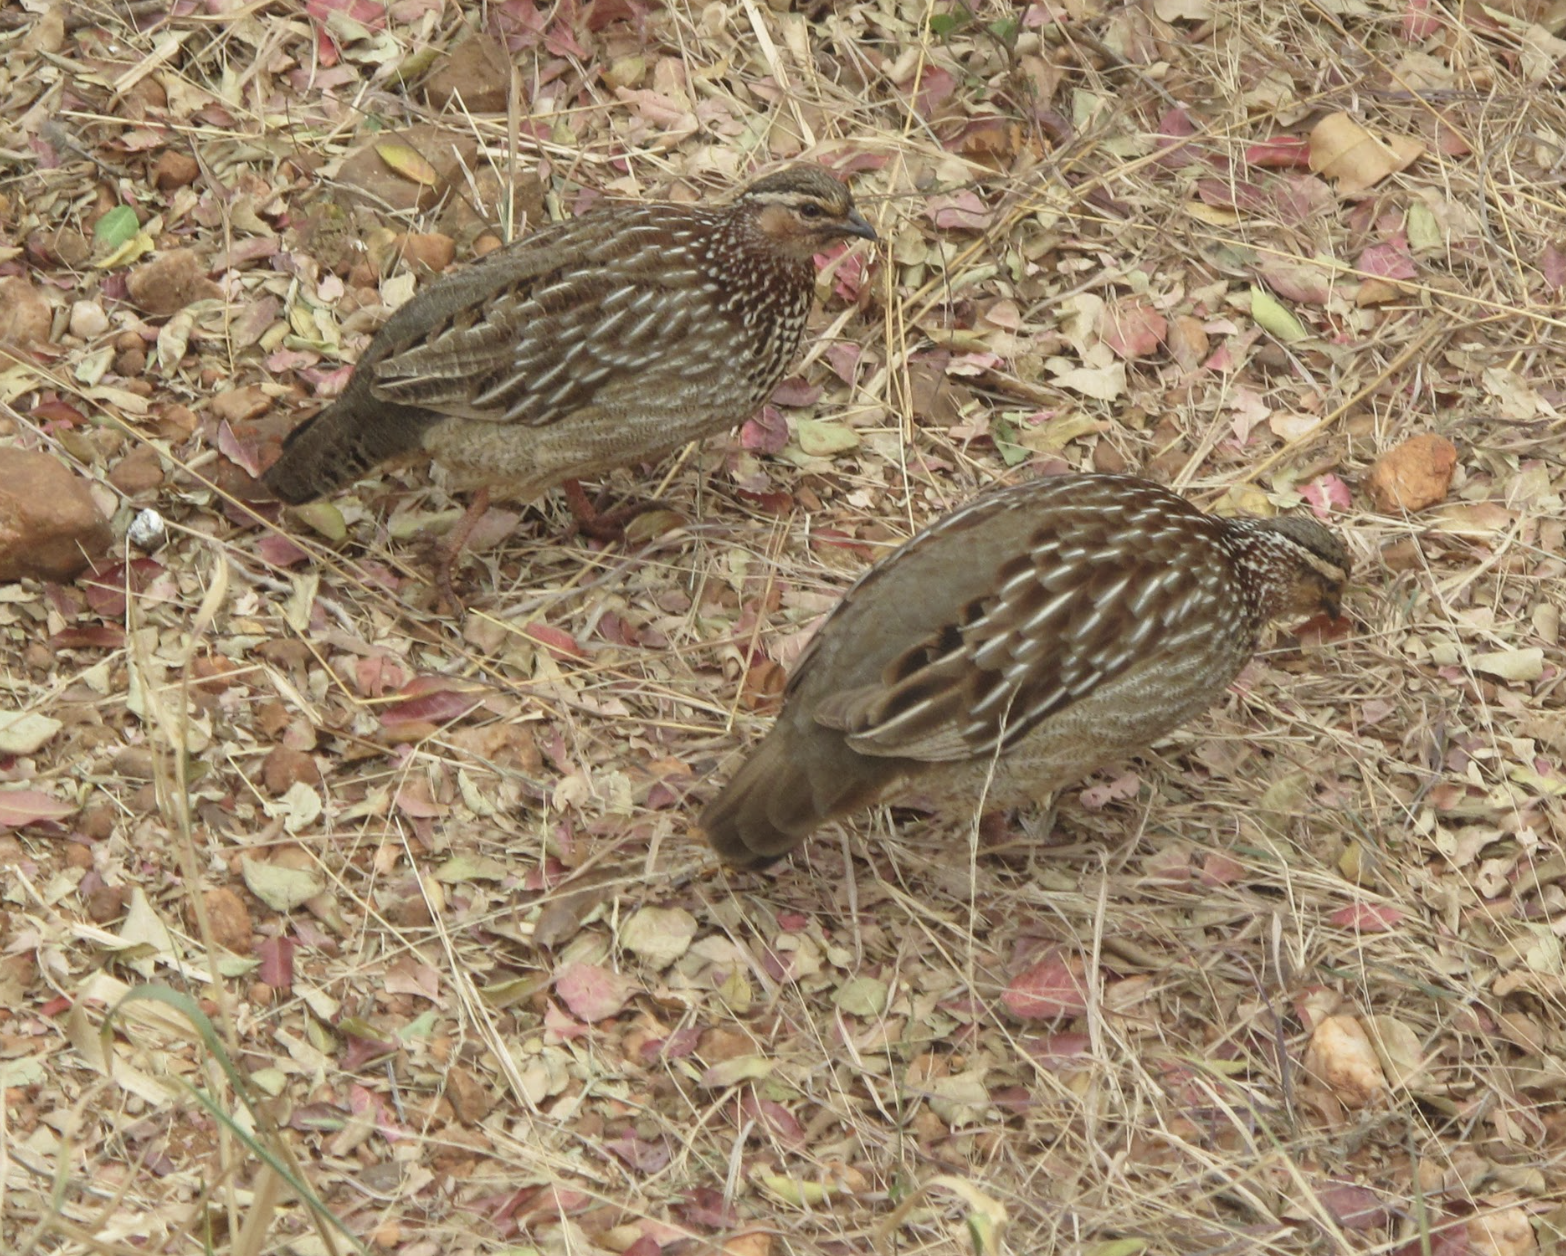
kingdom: Animalia
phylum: Chordata
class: Aves
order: Galliformes
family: Phasianidae
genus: Ortygornis
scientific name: Ortygornis sephaena
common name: Crested francolin
